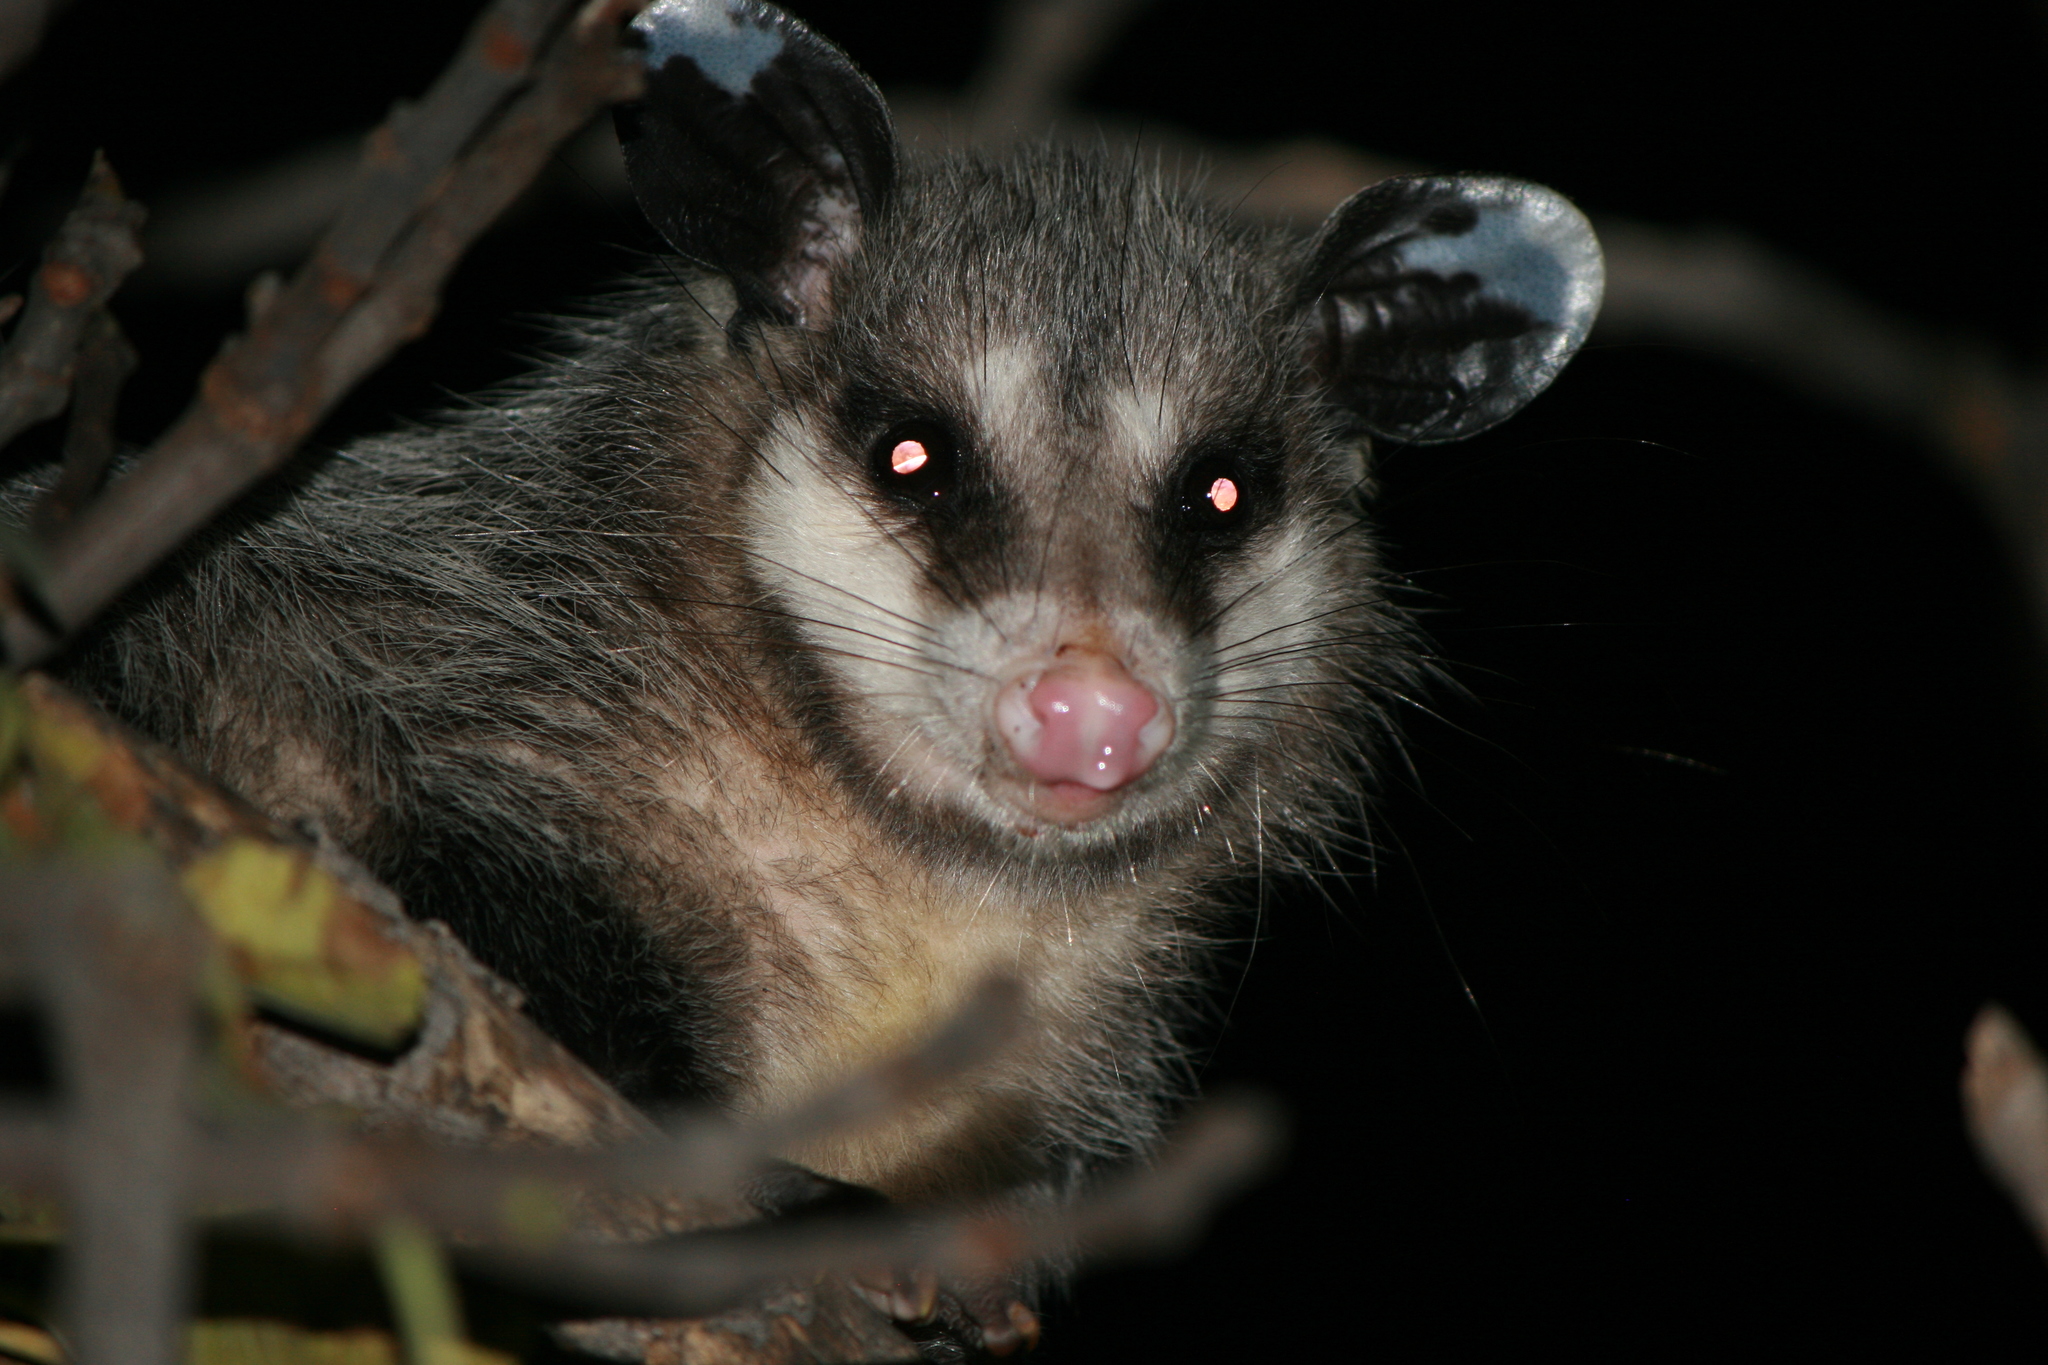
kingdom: Animalia
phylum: Chordata
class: Mammalia
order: Didelphimorphia
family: Didelphidae
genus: Didelphis
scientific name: Didelphis virginiana
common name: Virginia opossum
